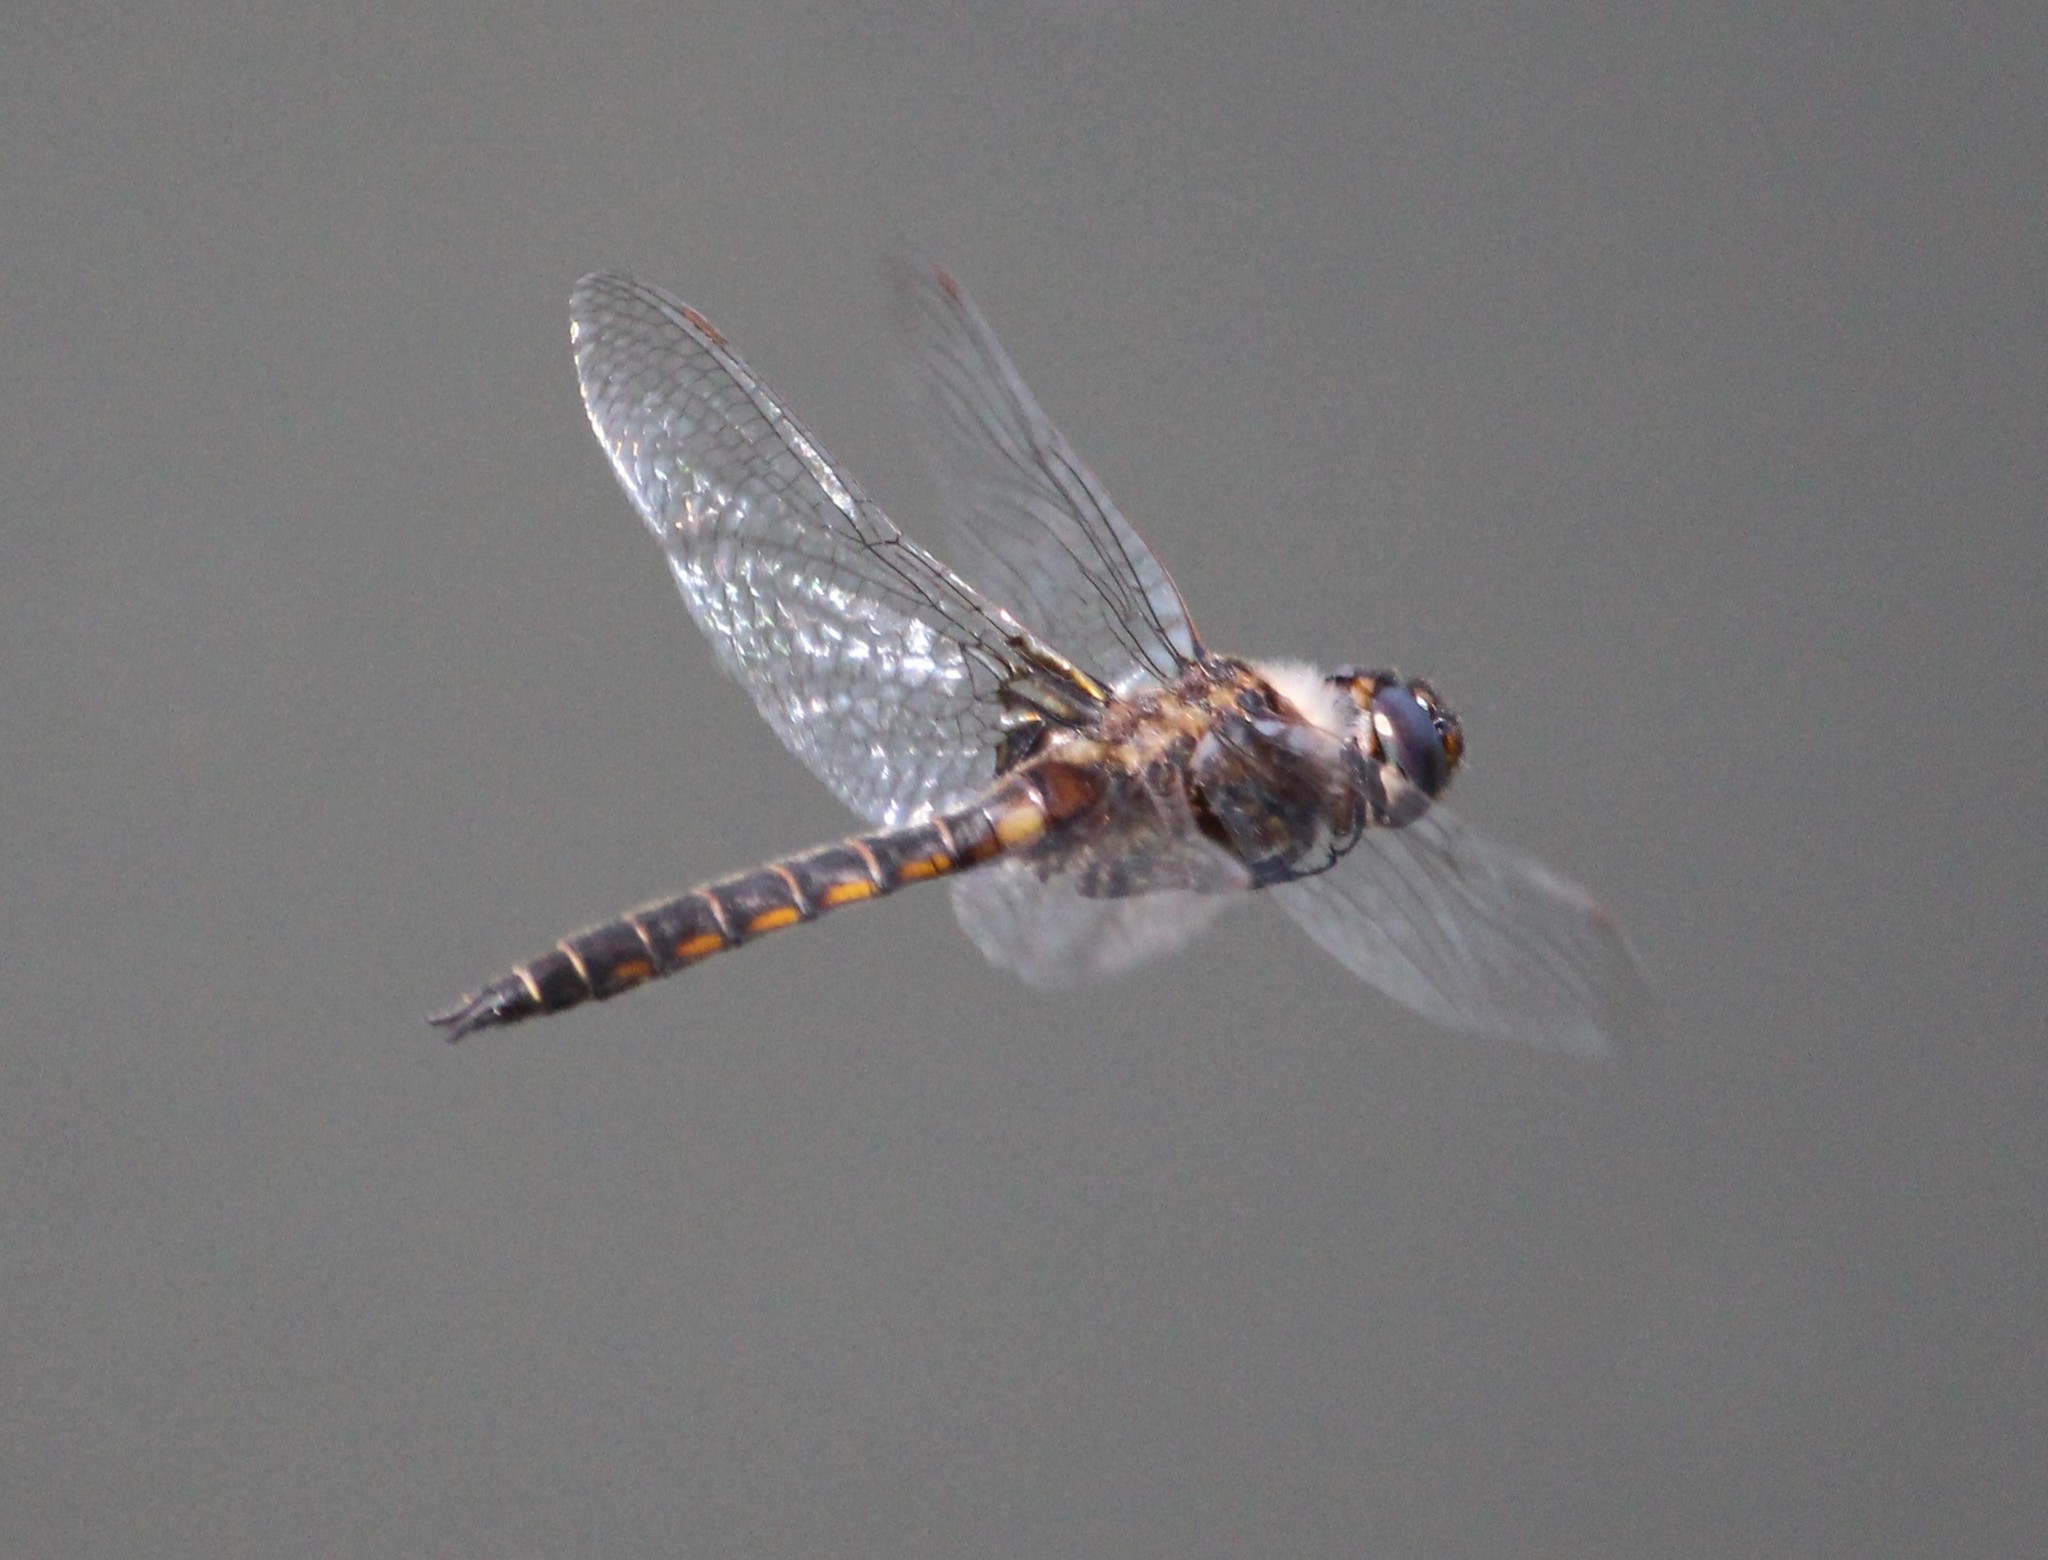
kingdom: Animalia
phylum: Arthropoda
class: Insecta
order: Odonata
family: Corduliidae
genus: Epitheca
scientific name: Epitheca cynosura
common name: Common baskettail
